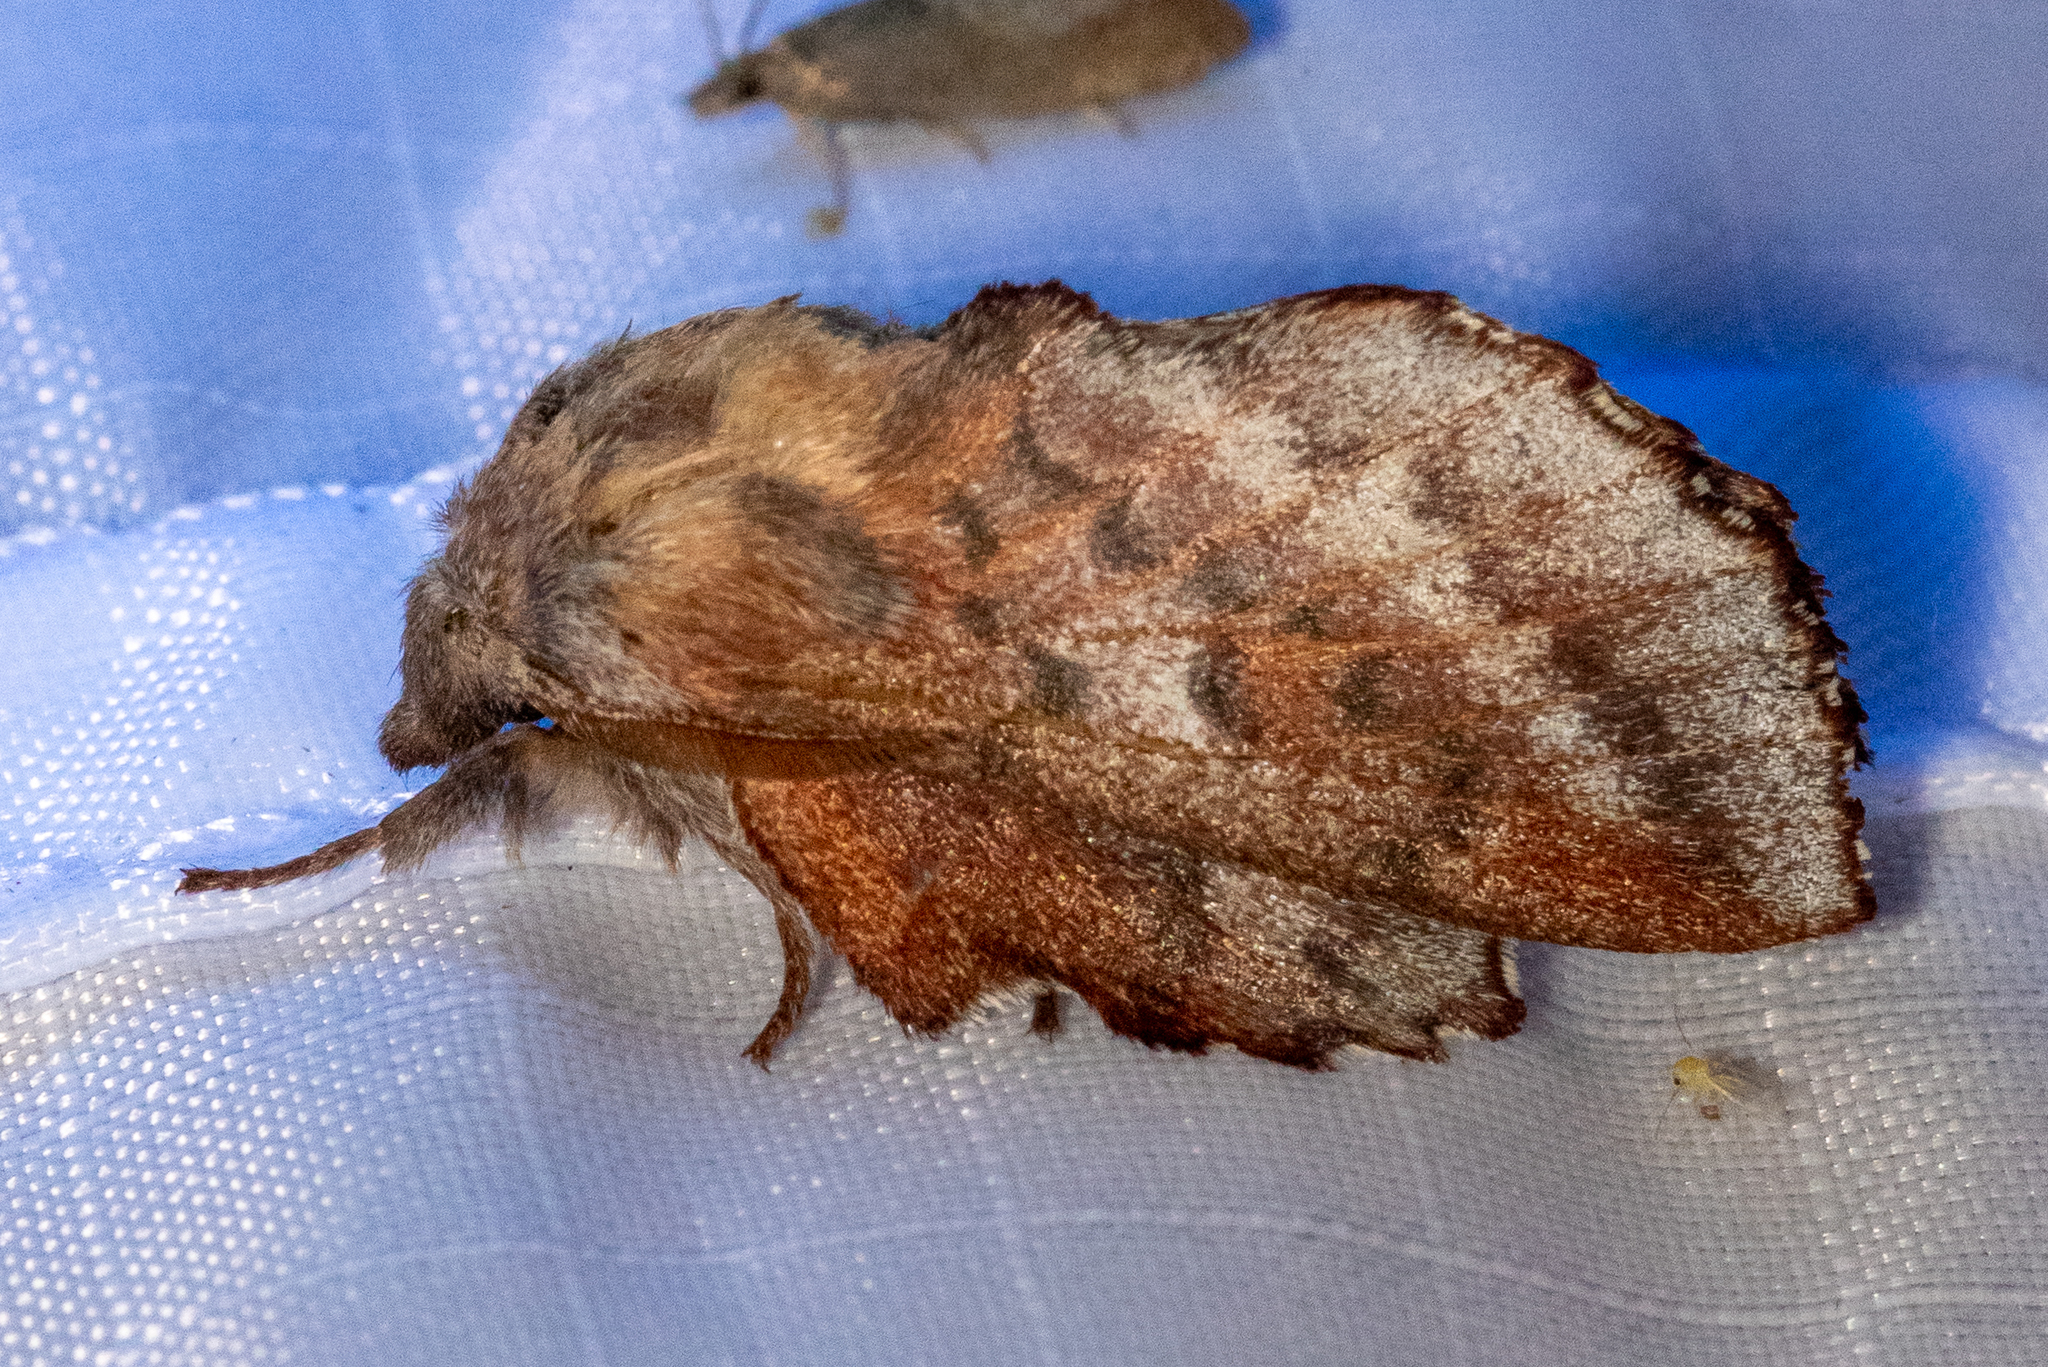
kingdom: Animalia
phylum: Arthropoda
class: Insecta
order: Lepidoptera
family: Lasiocampidae
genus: Phyllodesma
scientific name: Phyllodesma americana
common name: American lappet moth
